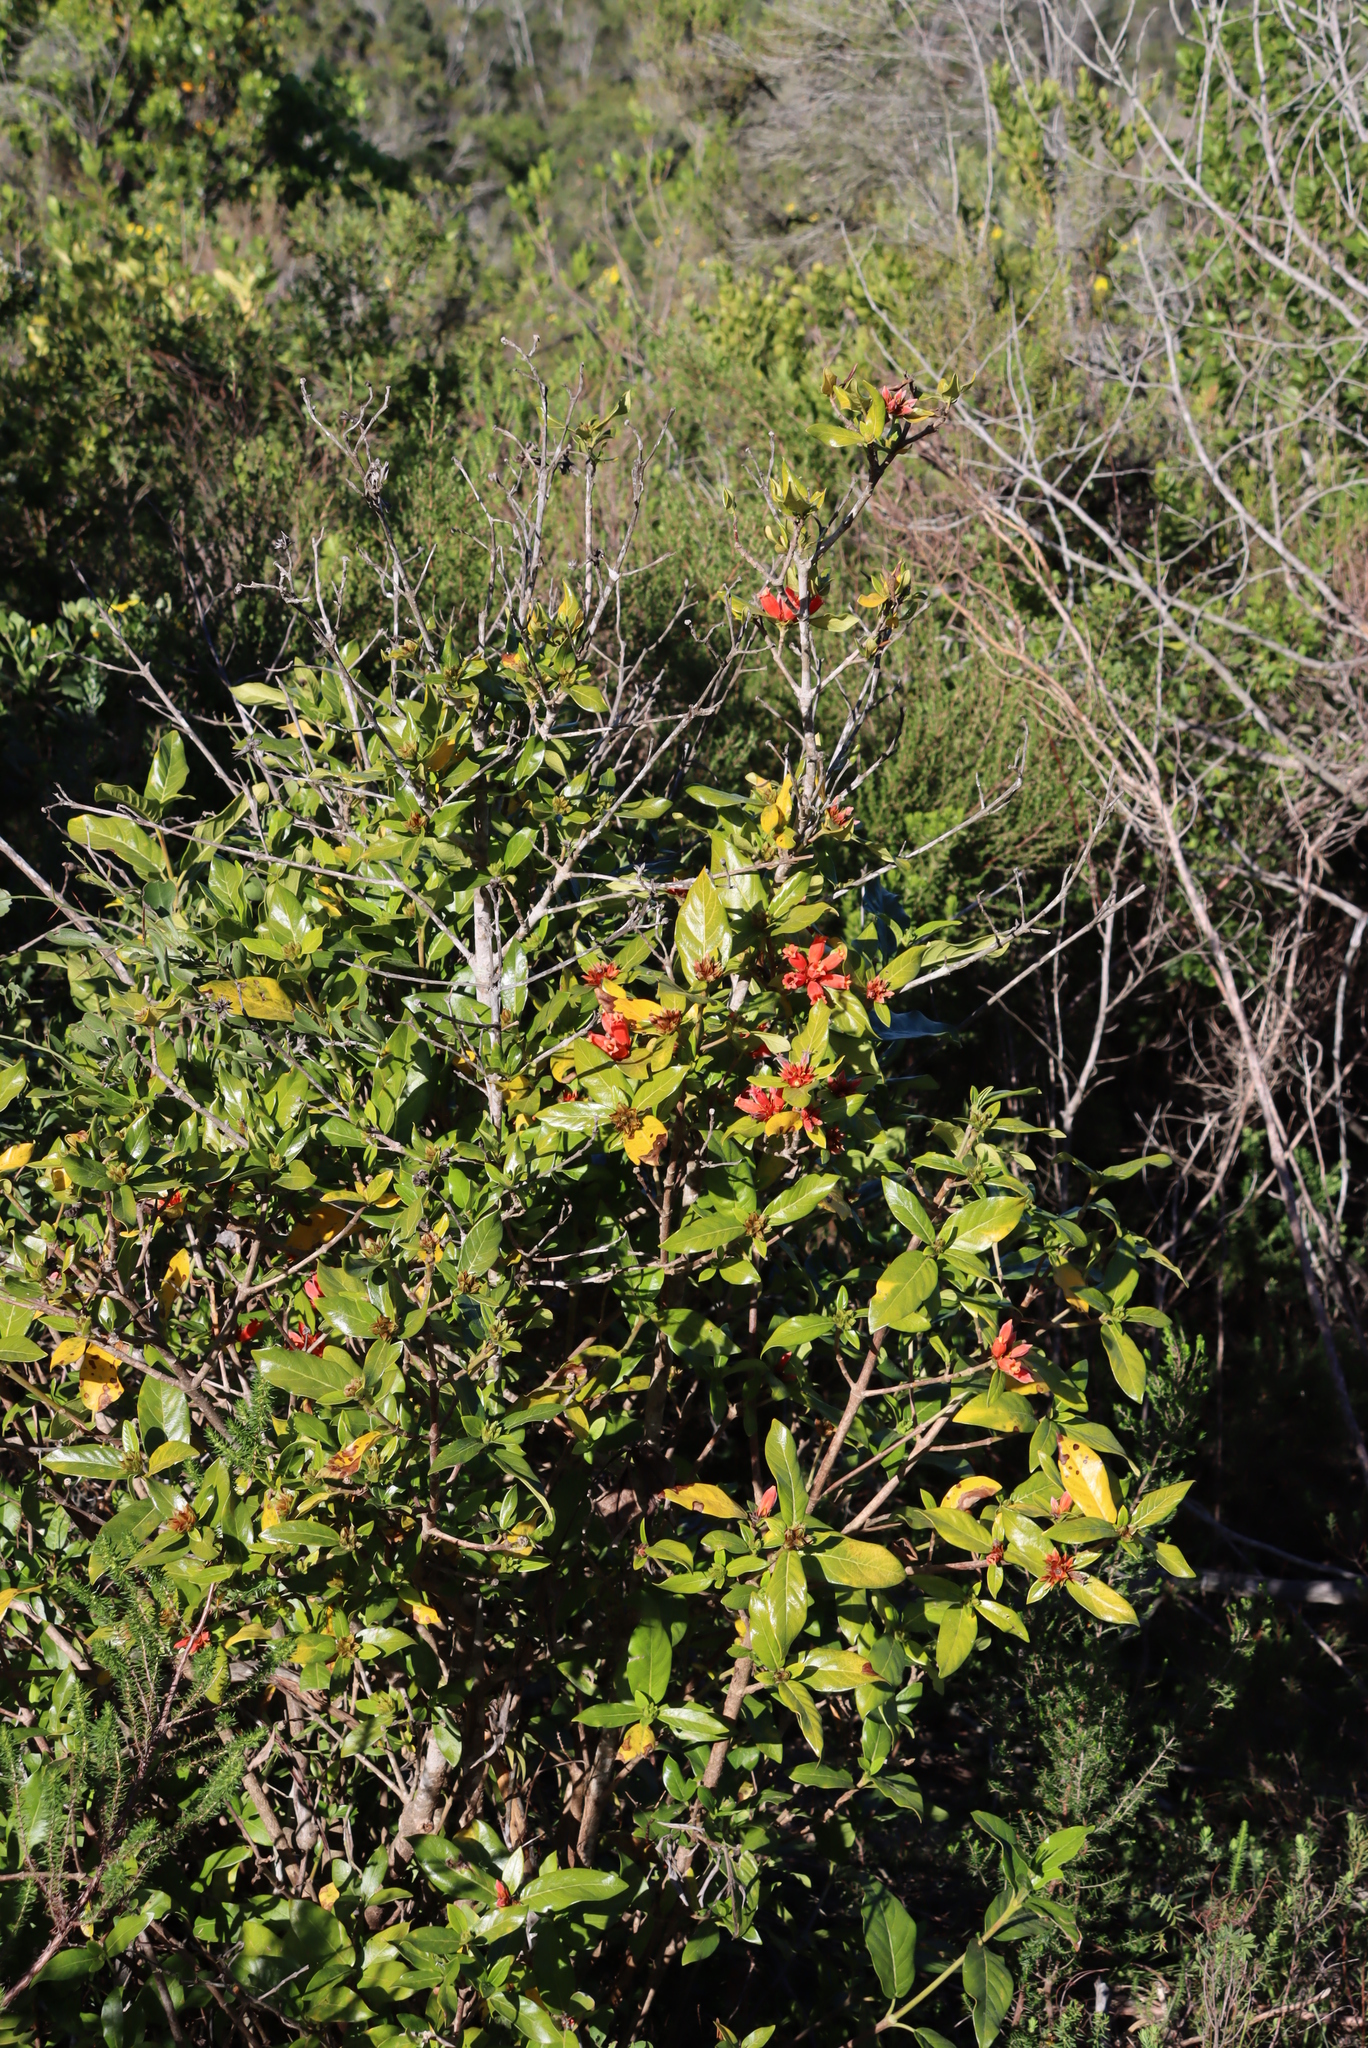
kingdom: Plantae
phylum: Tracheophyta
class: Magnoliopsida
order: Gentianales
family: Rubiaceae
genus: Burchellia
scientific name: Burchellia bubalina
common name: Wild pomegranate
